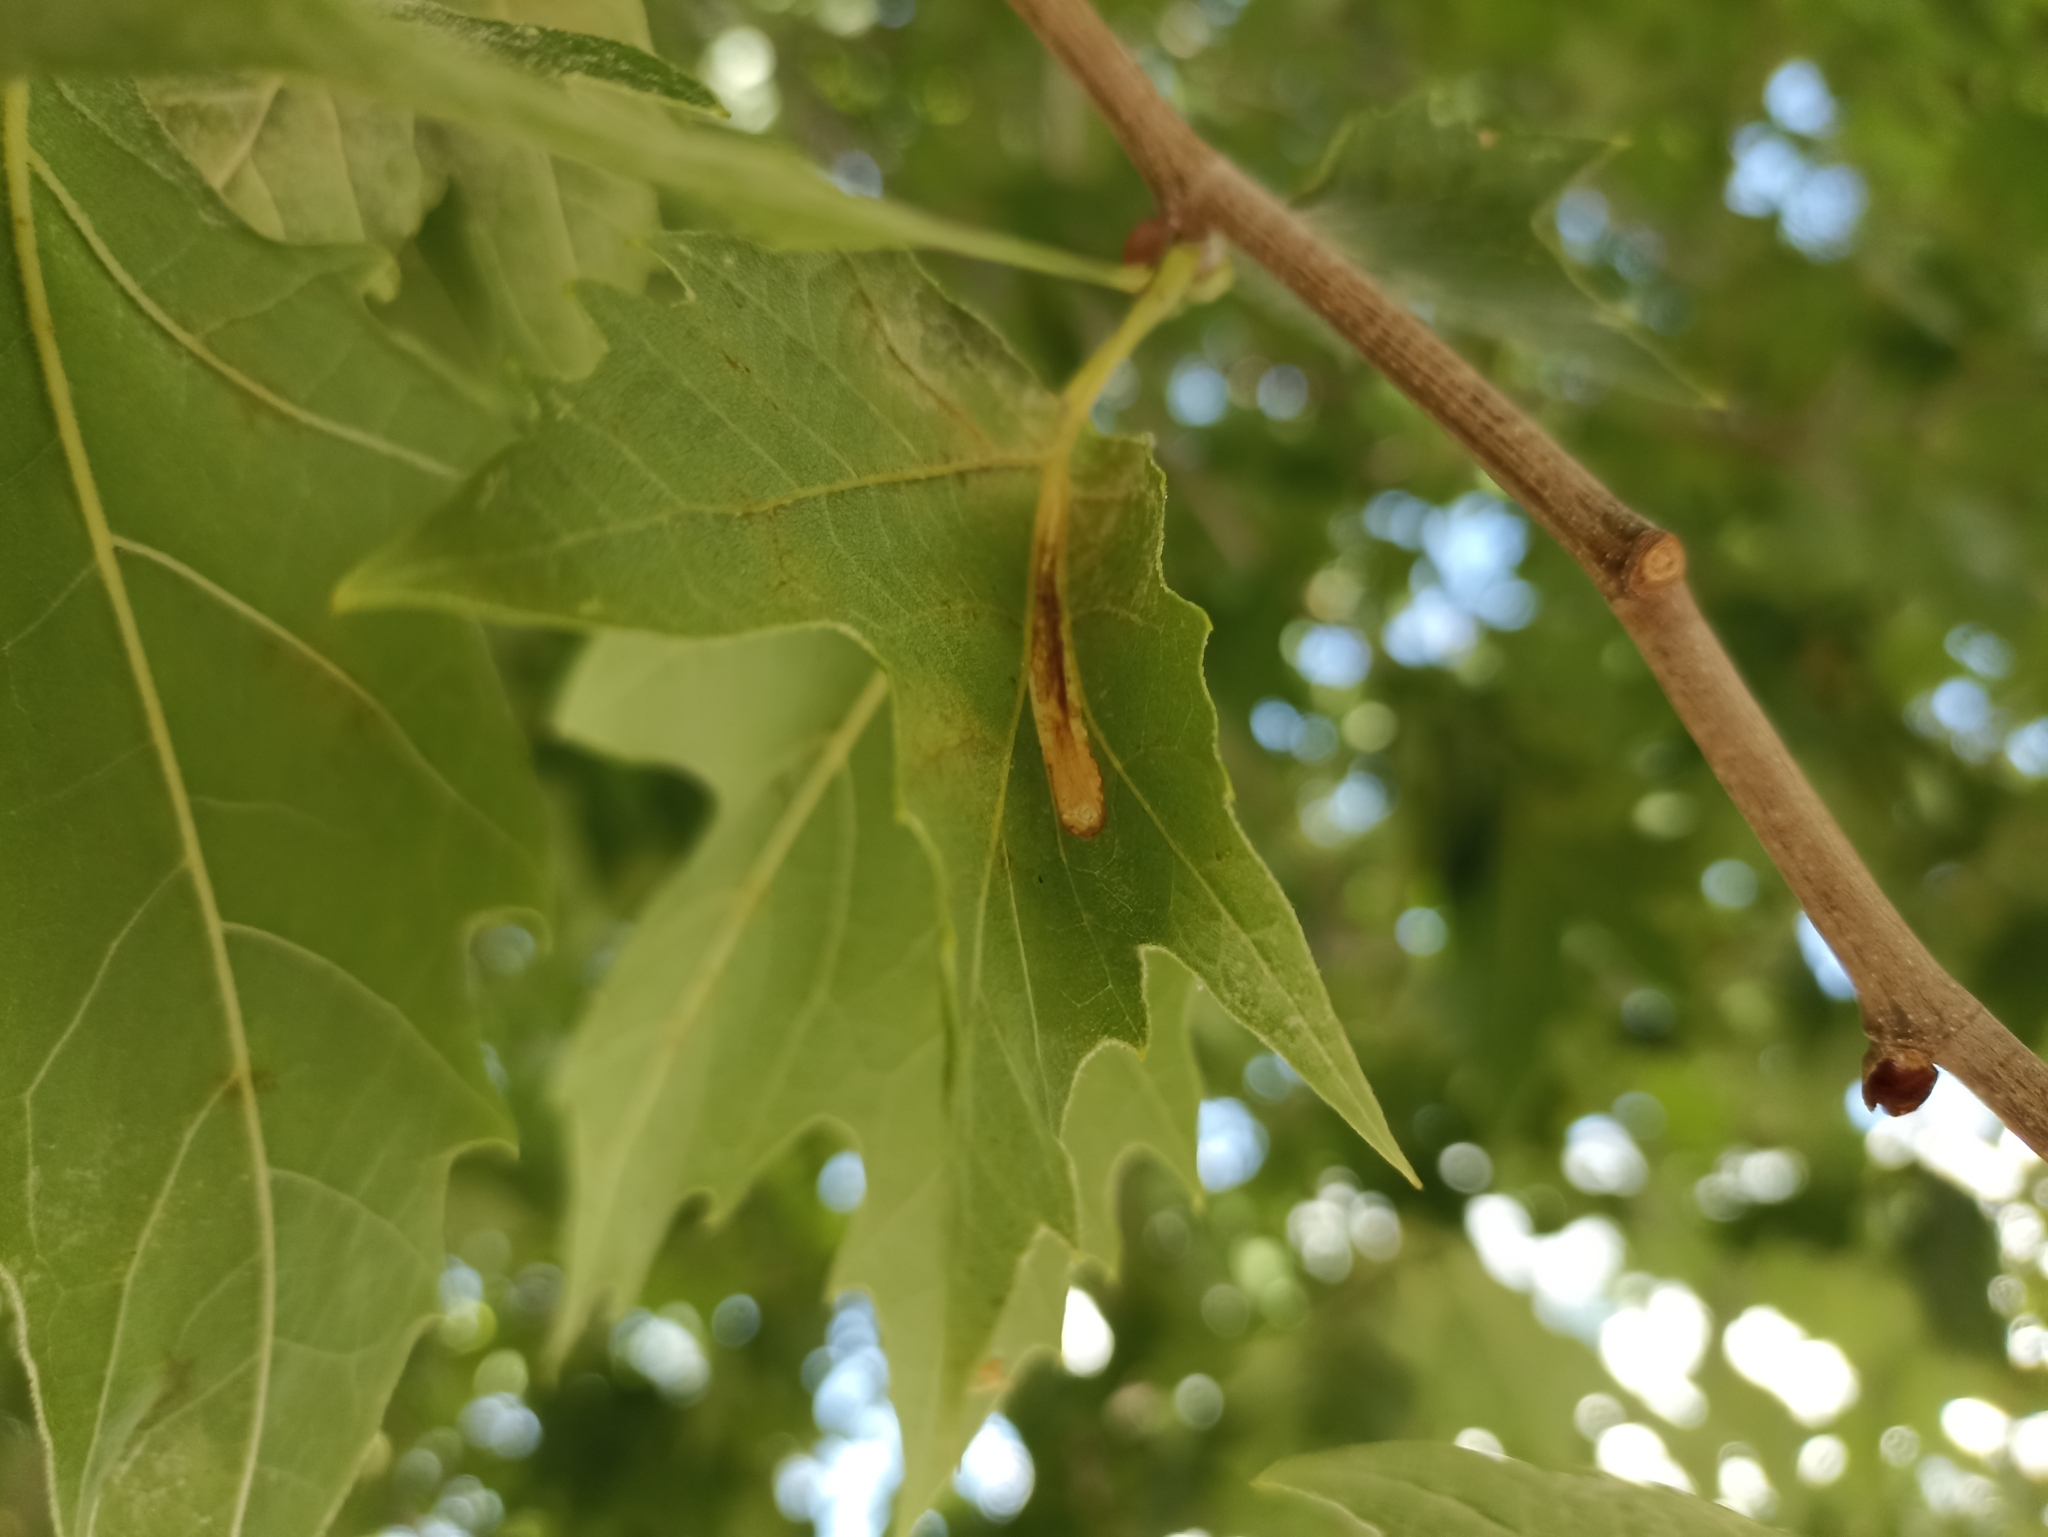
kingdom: Animalia
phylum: Arthropoda
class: Insecta
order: Lepidoptera
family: Gracillariidae
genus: Phyllonorycter
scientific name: Phyllonorycter platani
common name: London midget
